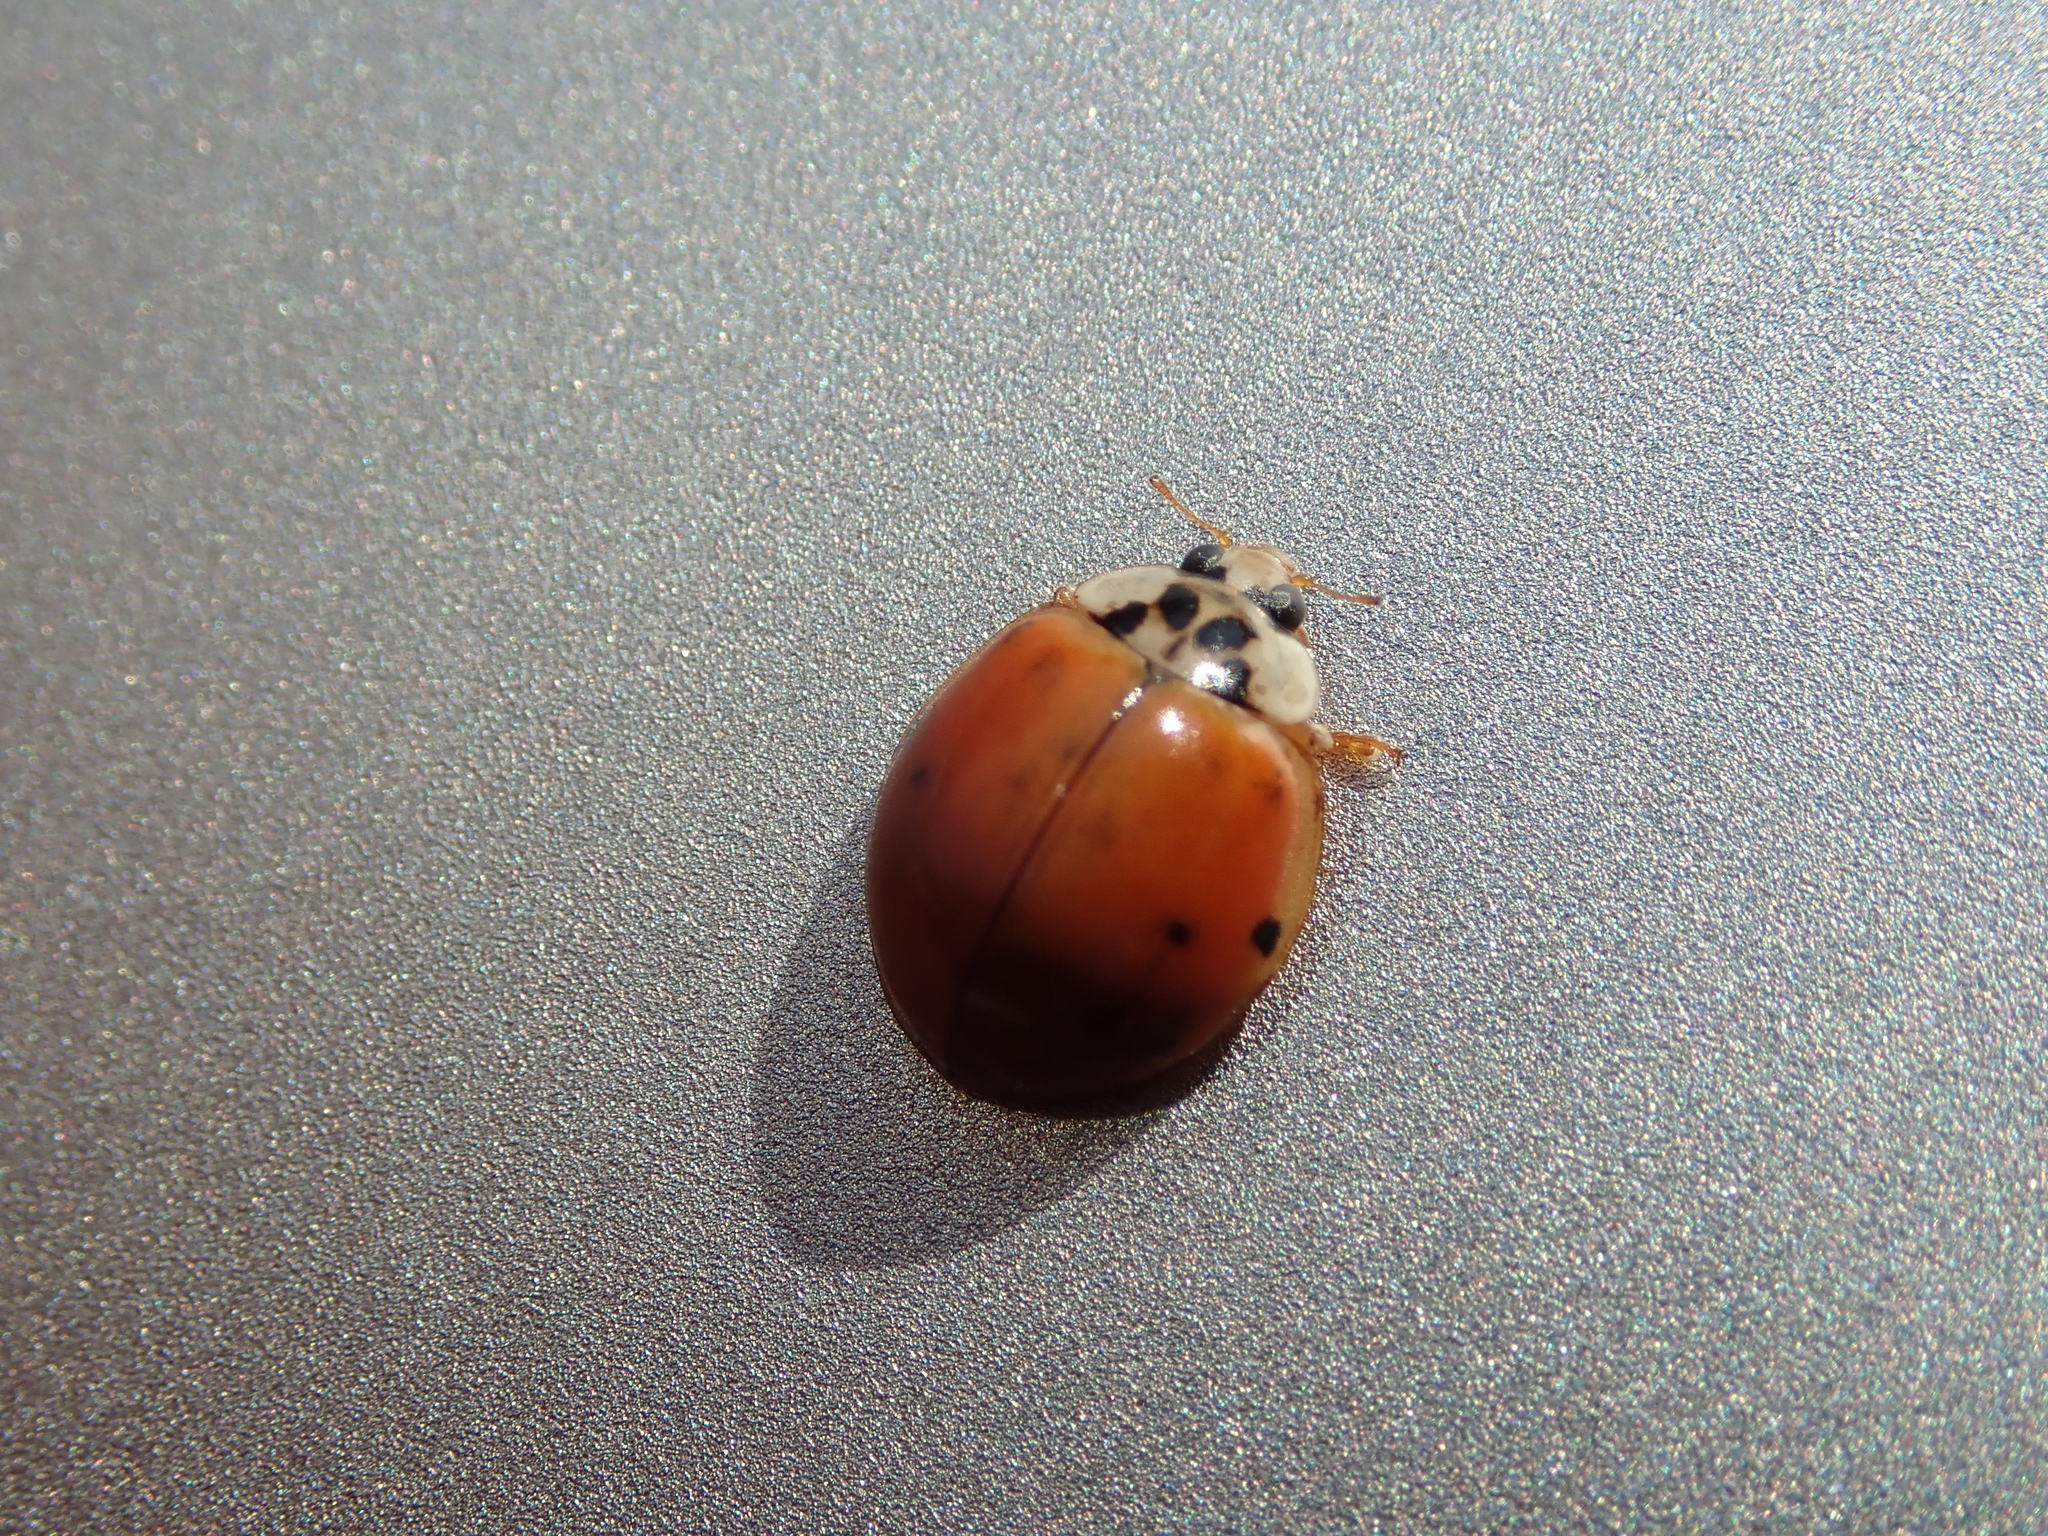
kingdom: Animalia
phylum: Arthropoda
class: Insecta
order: Coleoptera
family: Coccinellidae
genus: Harmonia
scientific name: Harmonia axyridis
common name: Harlequin ladybird
